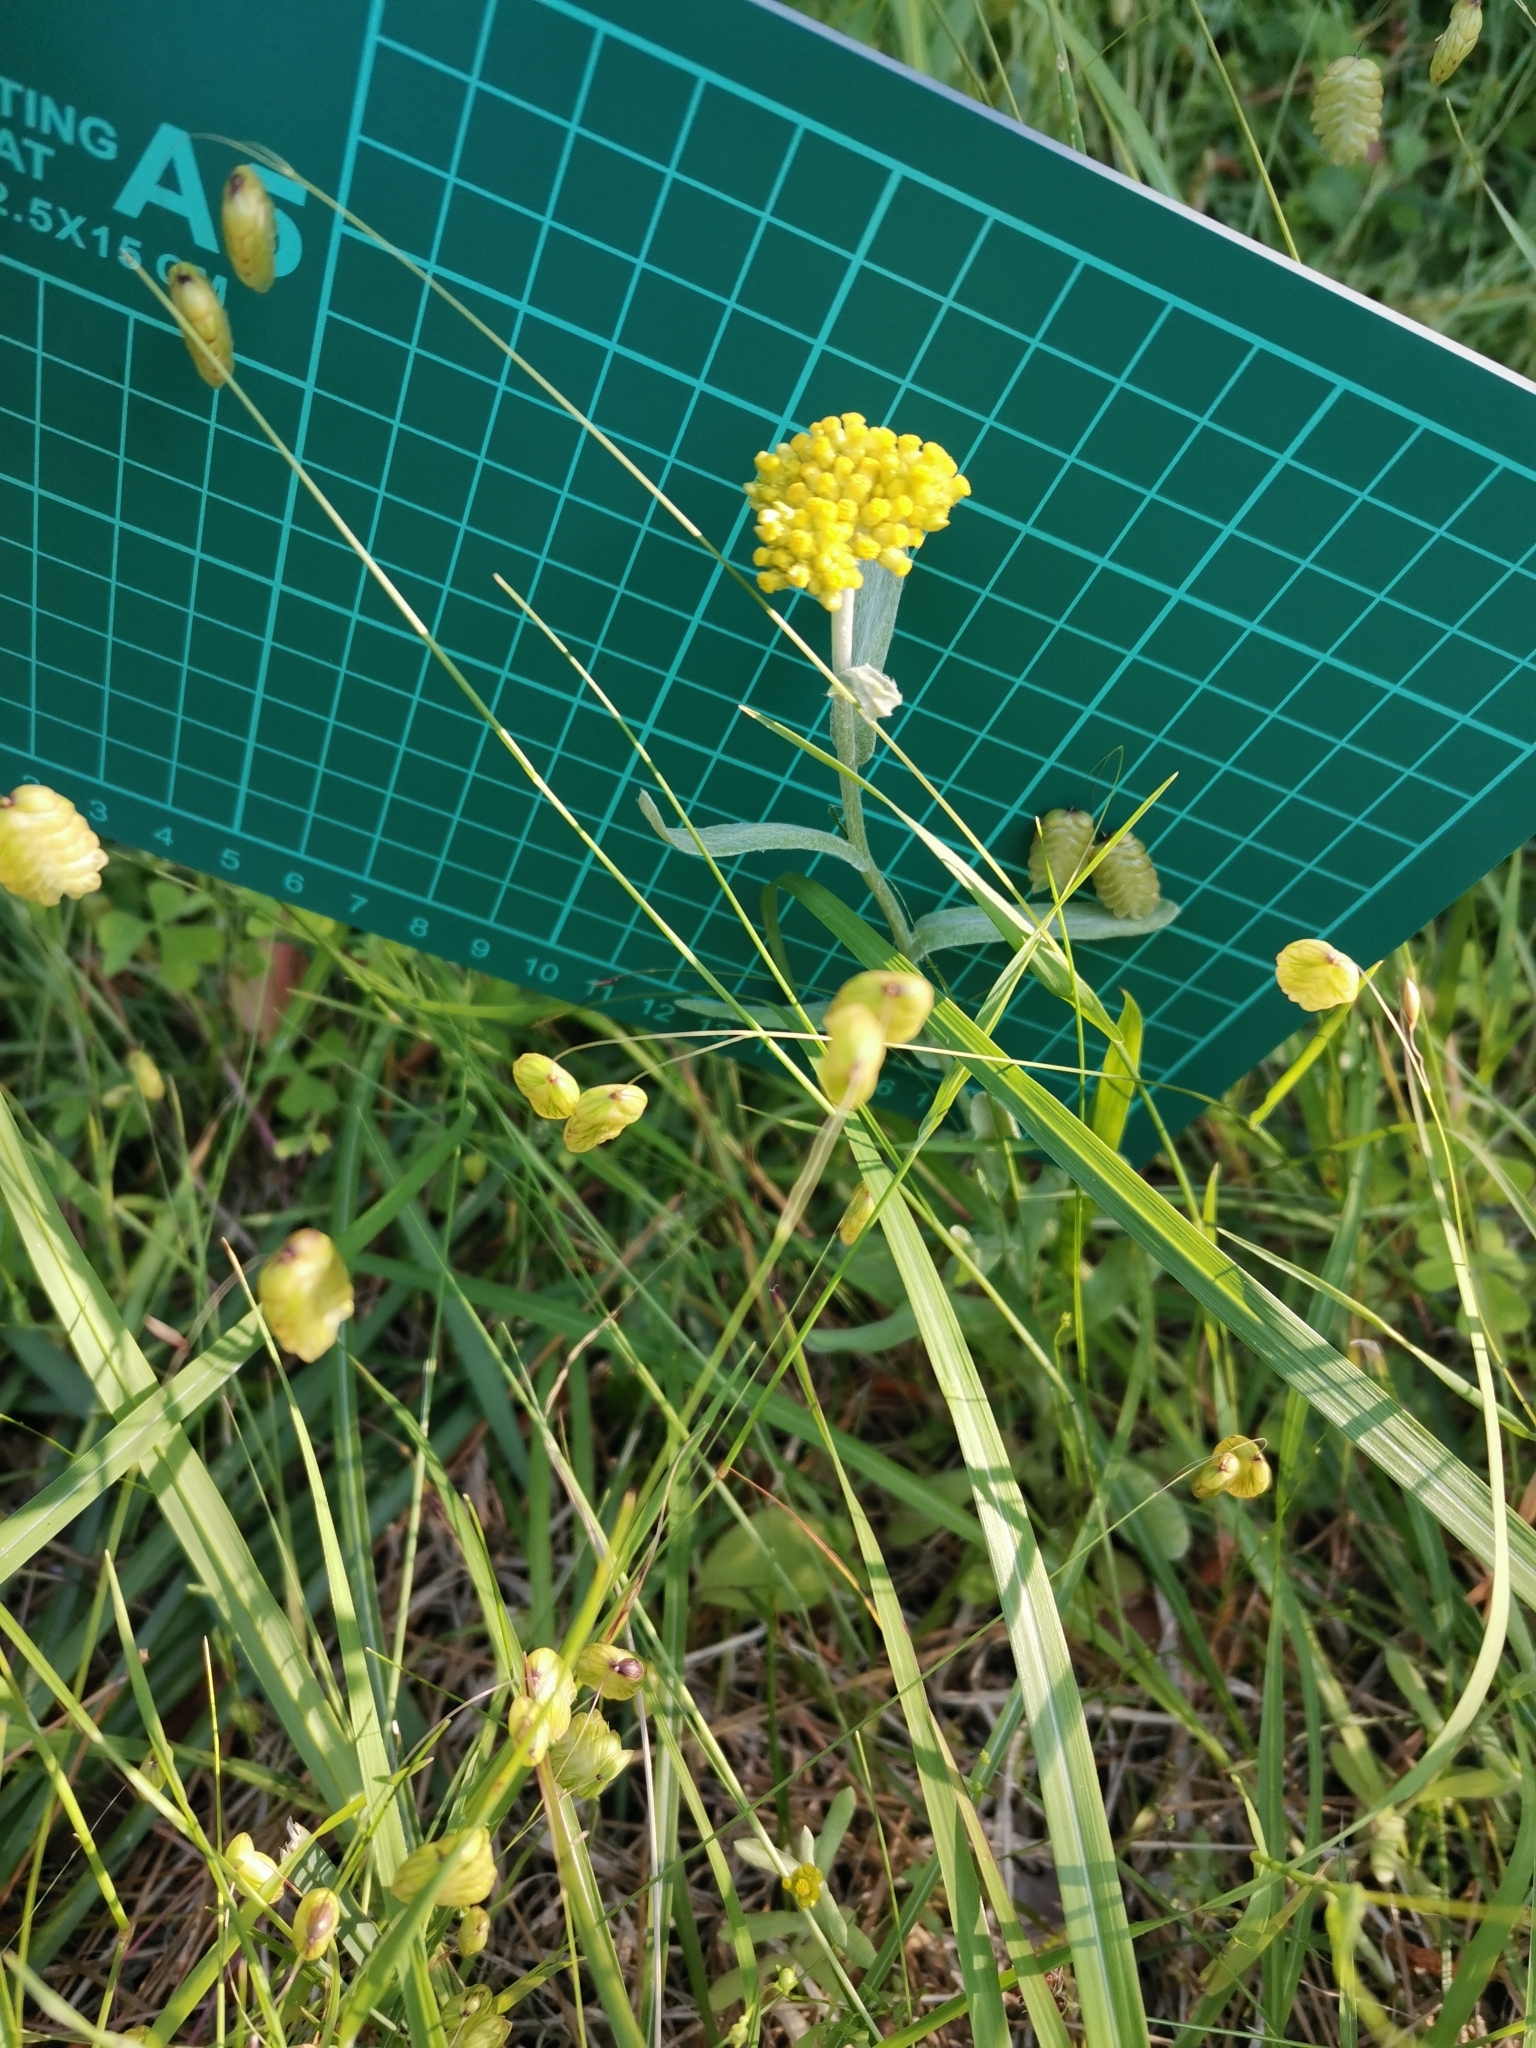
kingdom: Plantae
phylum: Tracheophyta
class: Magnoliopsida
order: Asterales
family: Asteraceae
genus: Pseudognaphalium
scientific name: Pseudognaphalium affine
